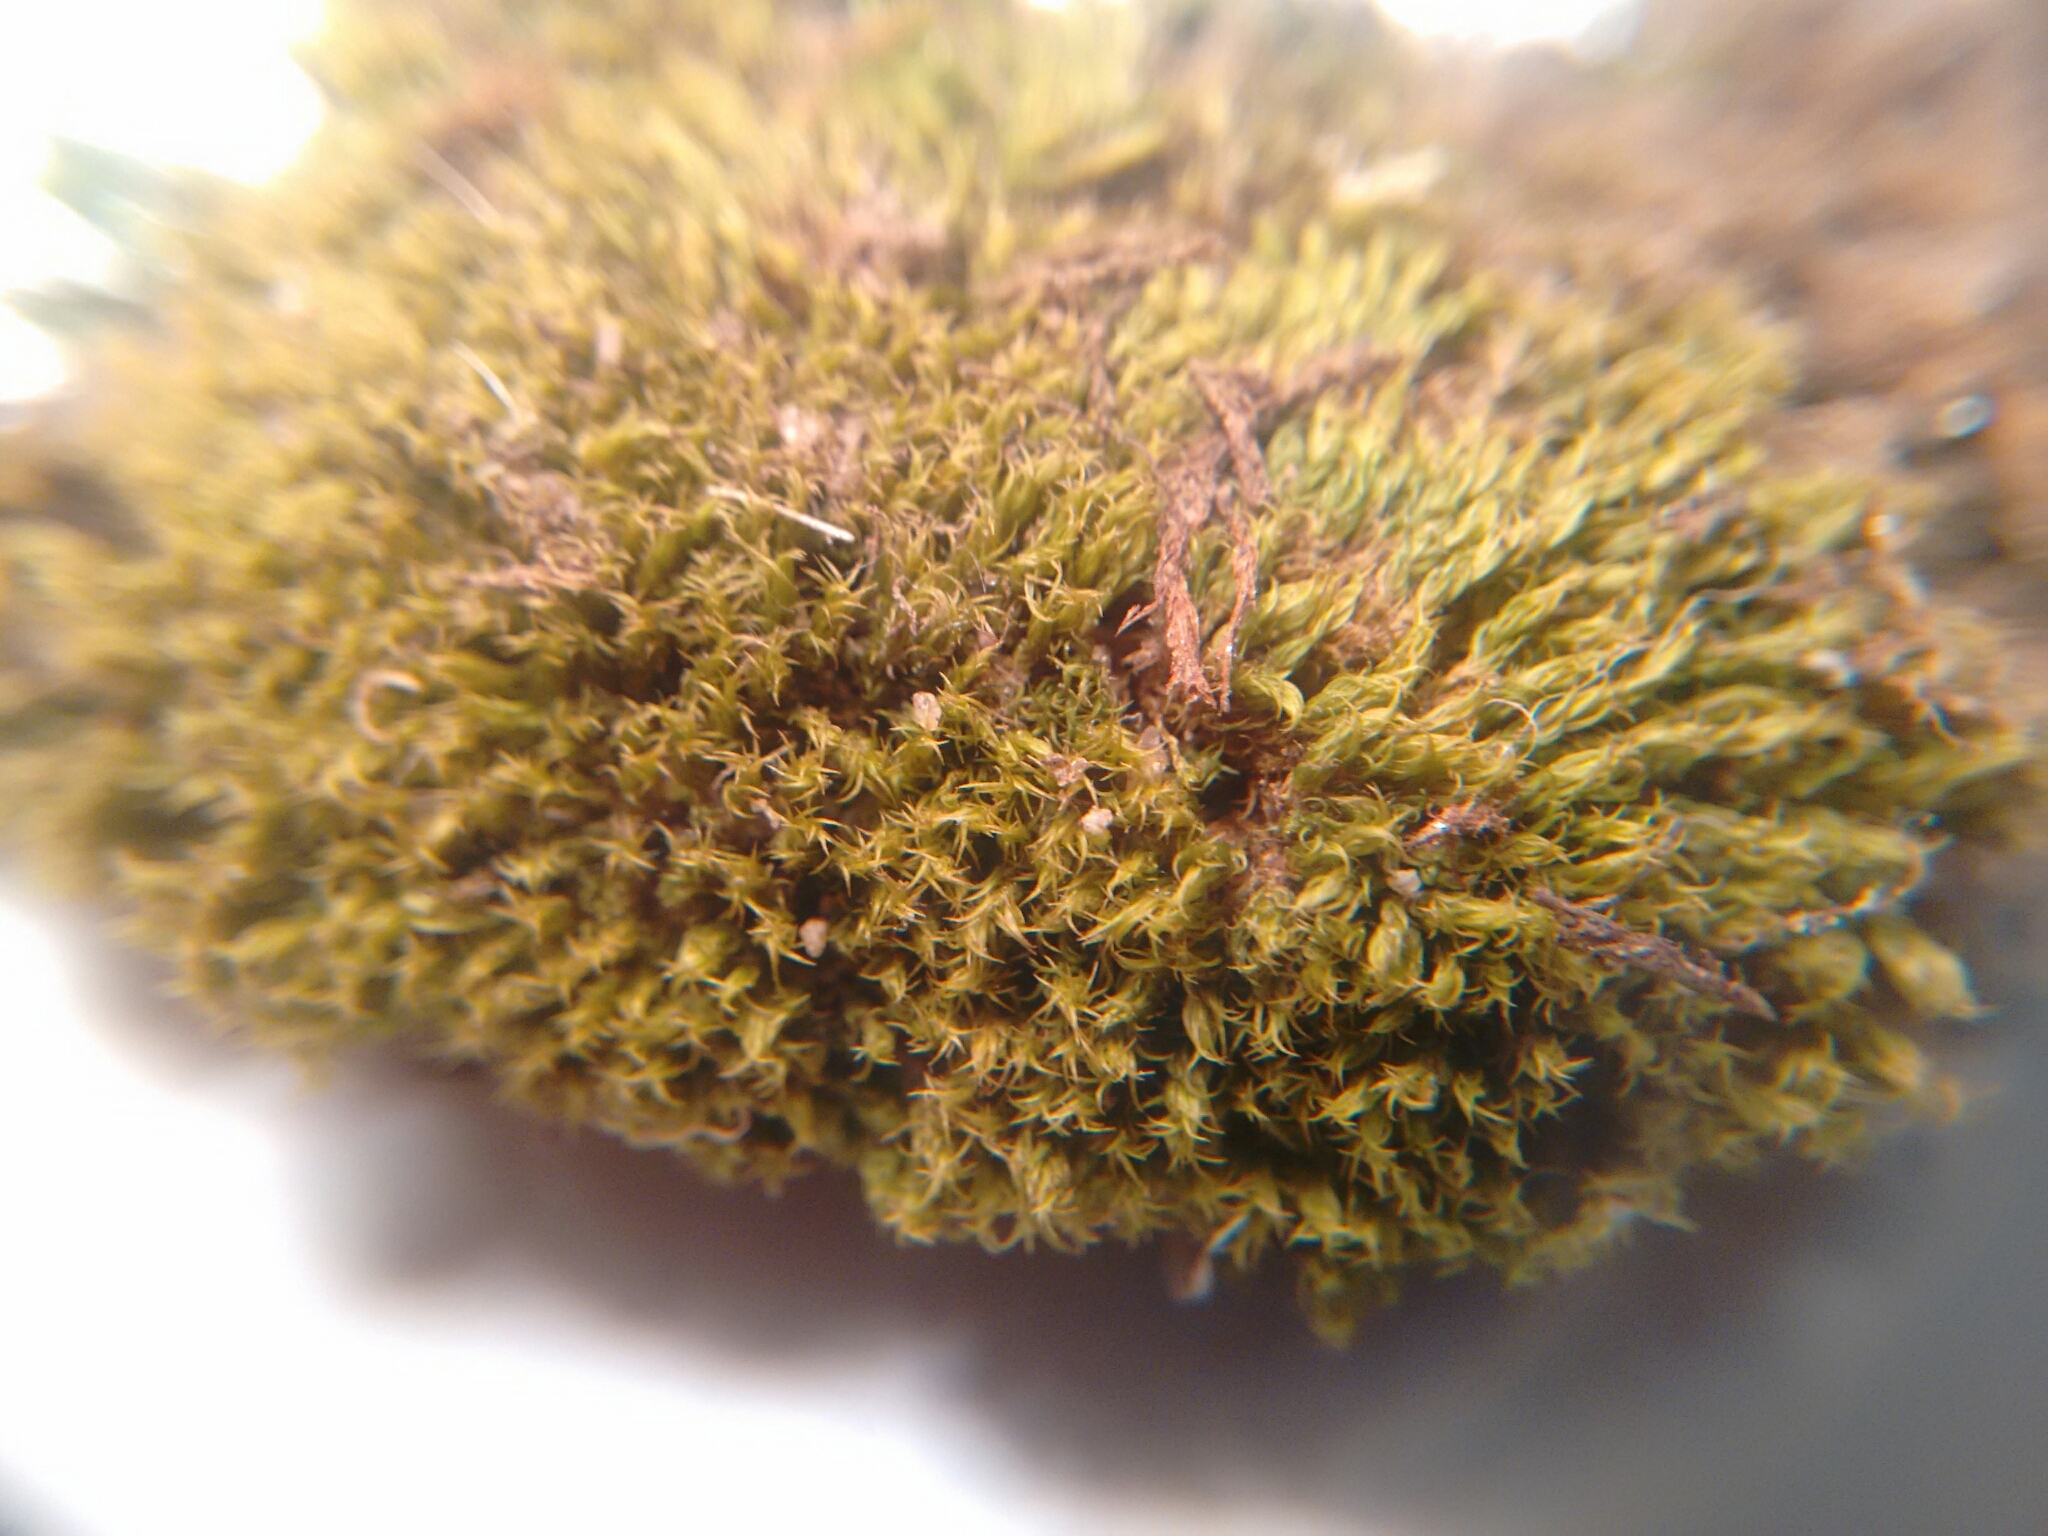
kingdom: Plantae
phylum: Bryophyta
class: Bryopsida
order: Dicranales
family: Ditrichaceae
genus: Ceratodon
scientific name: Ceratodon purpureus
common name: Redshank
